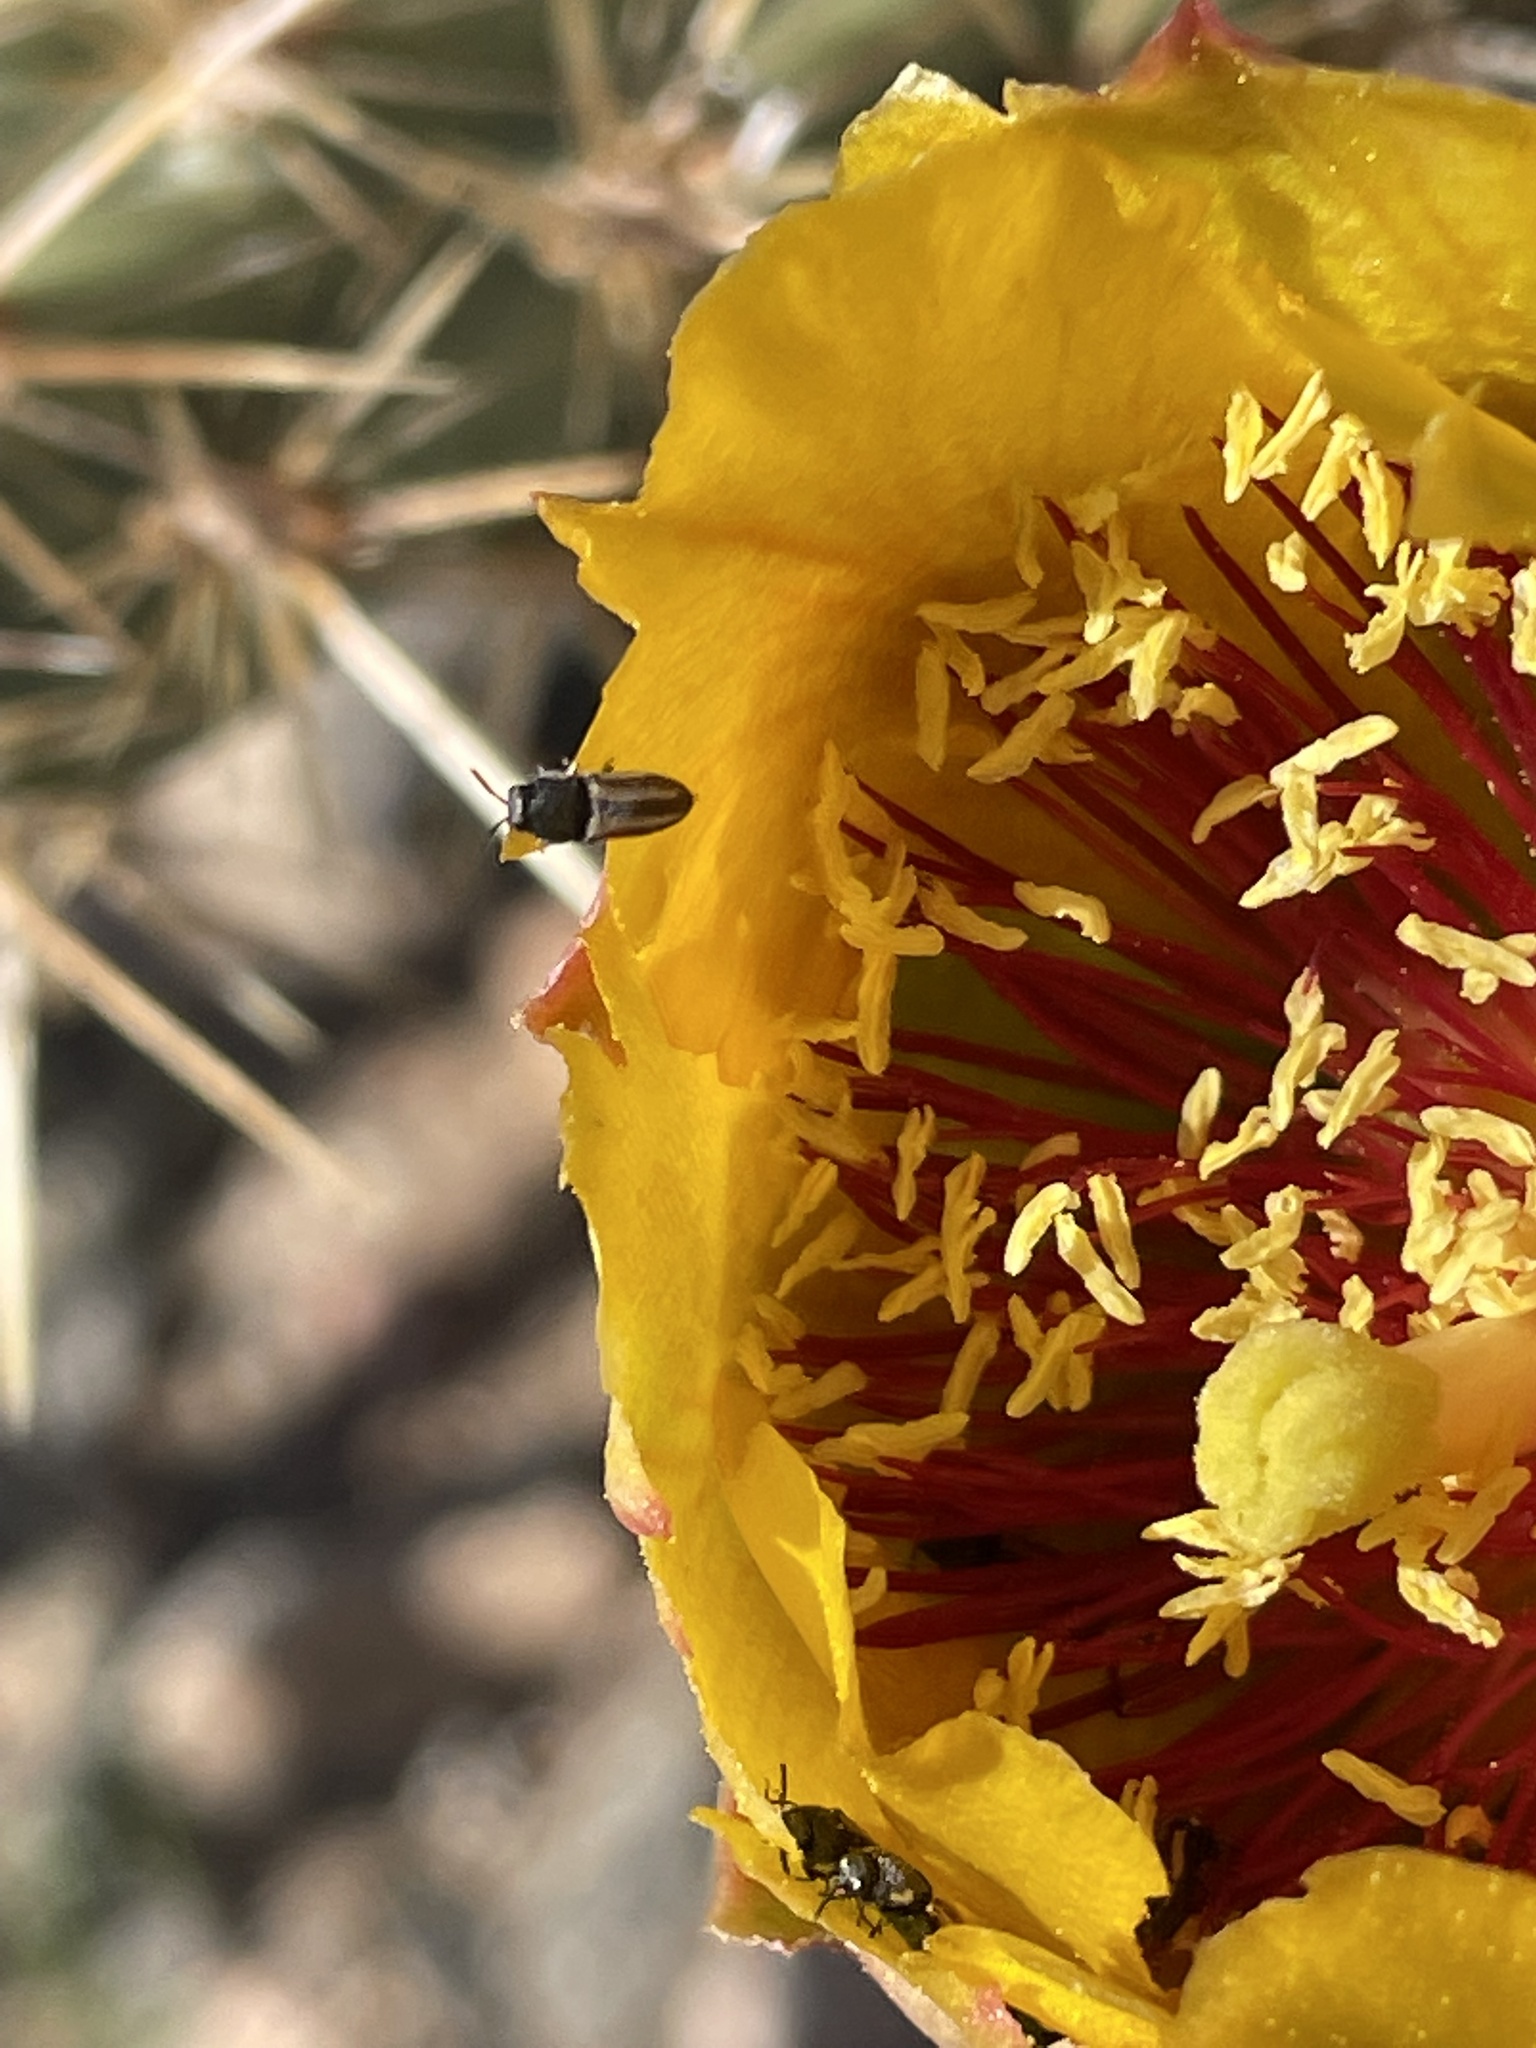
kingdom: Animalia
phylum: Arthropoda
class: Insecta
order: Coleoptera
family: Buprestidae
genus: Acmaeodera
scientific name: Acmaeodera quadrivittatoides
